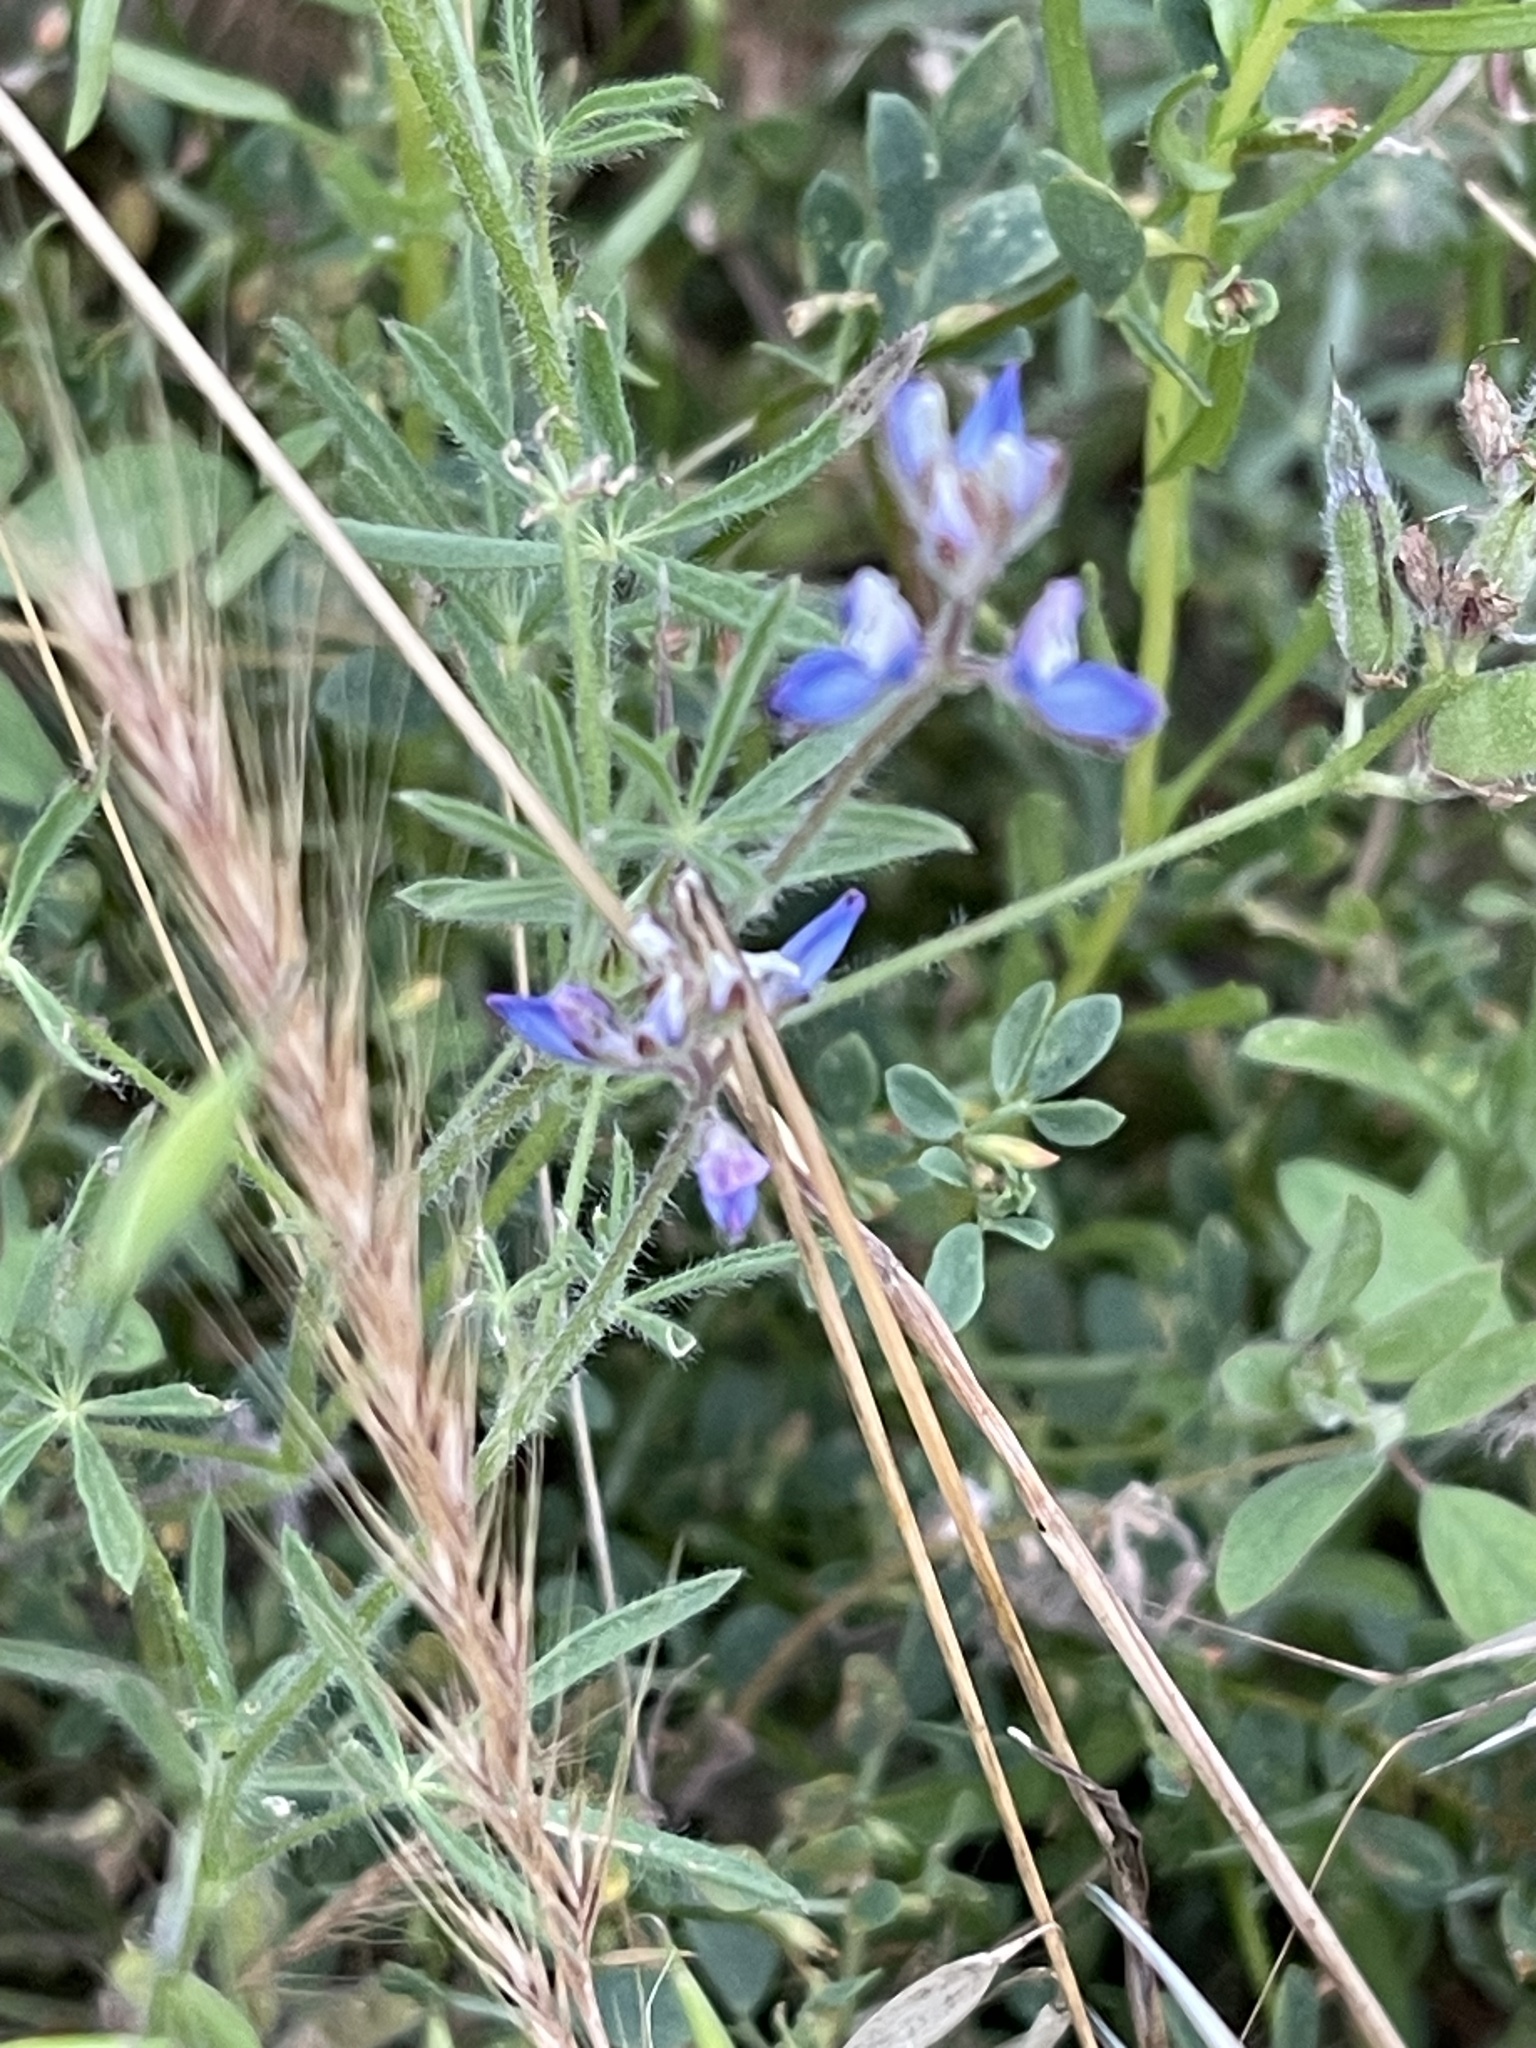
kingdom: Plantae
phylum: Tracheophyta
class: Magnoliopsida
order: Fabales
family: Fabaceae
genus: Lupinus
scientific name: Lupinus bicolor
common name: Miniature lupine
